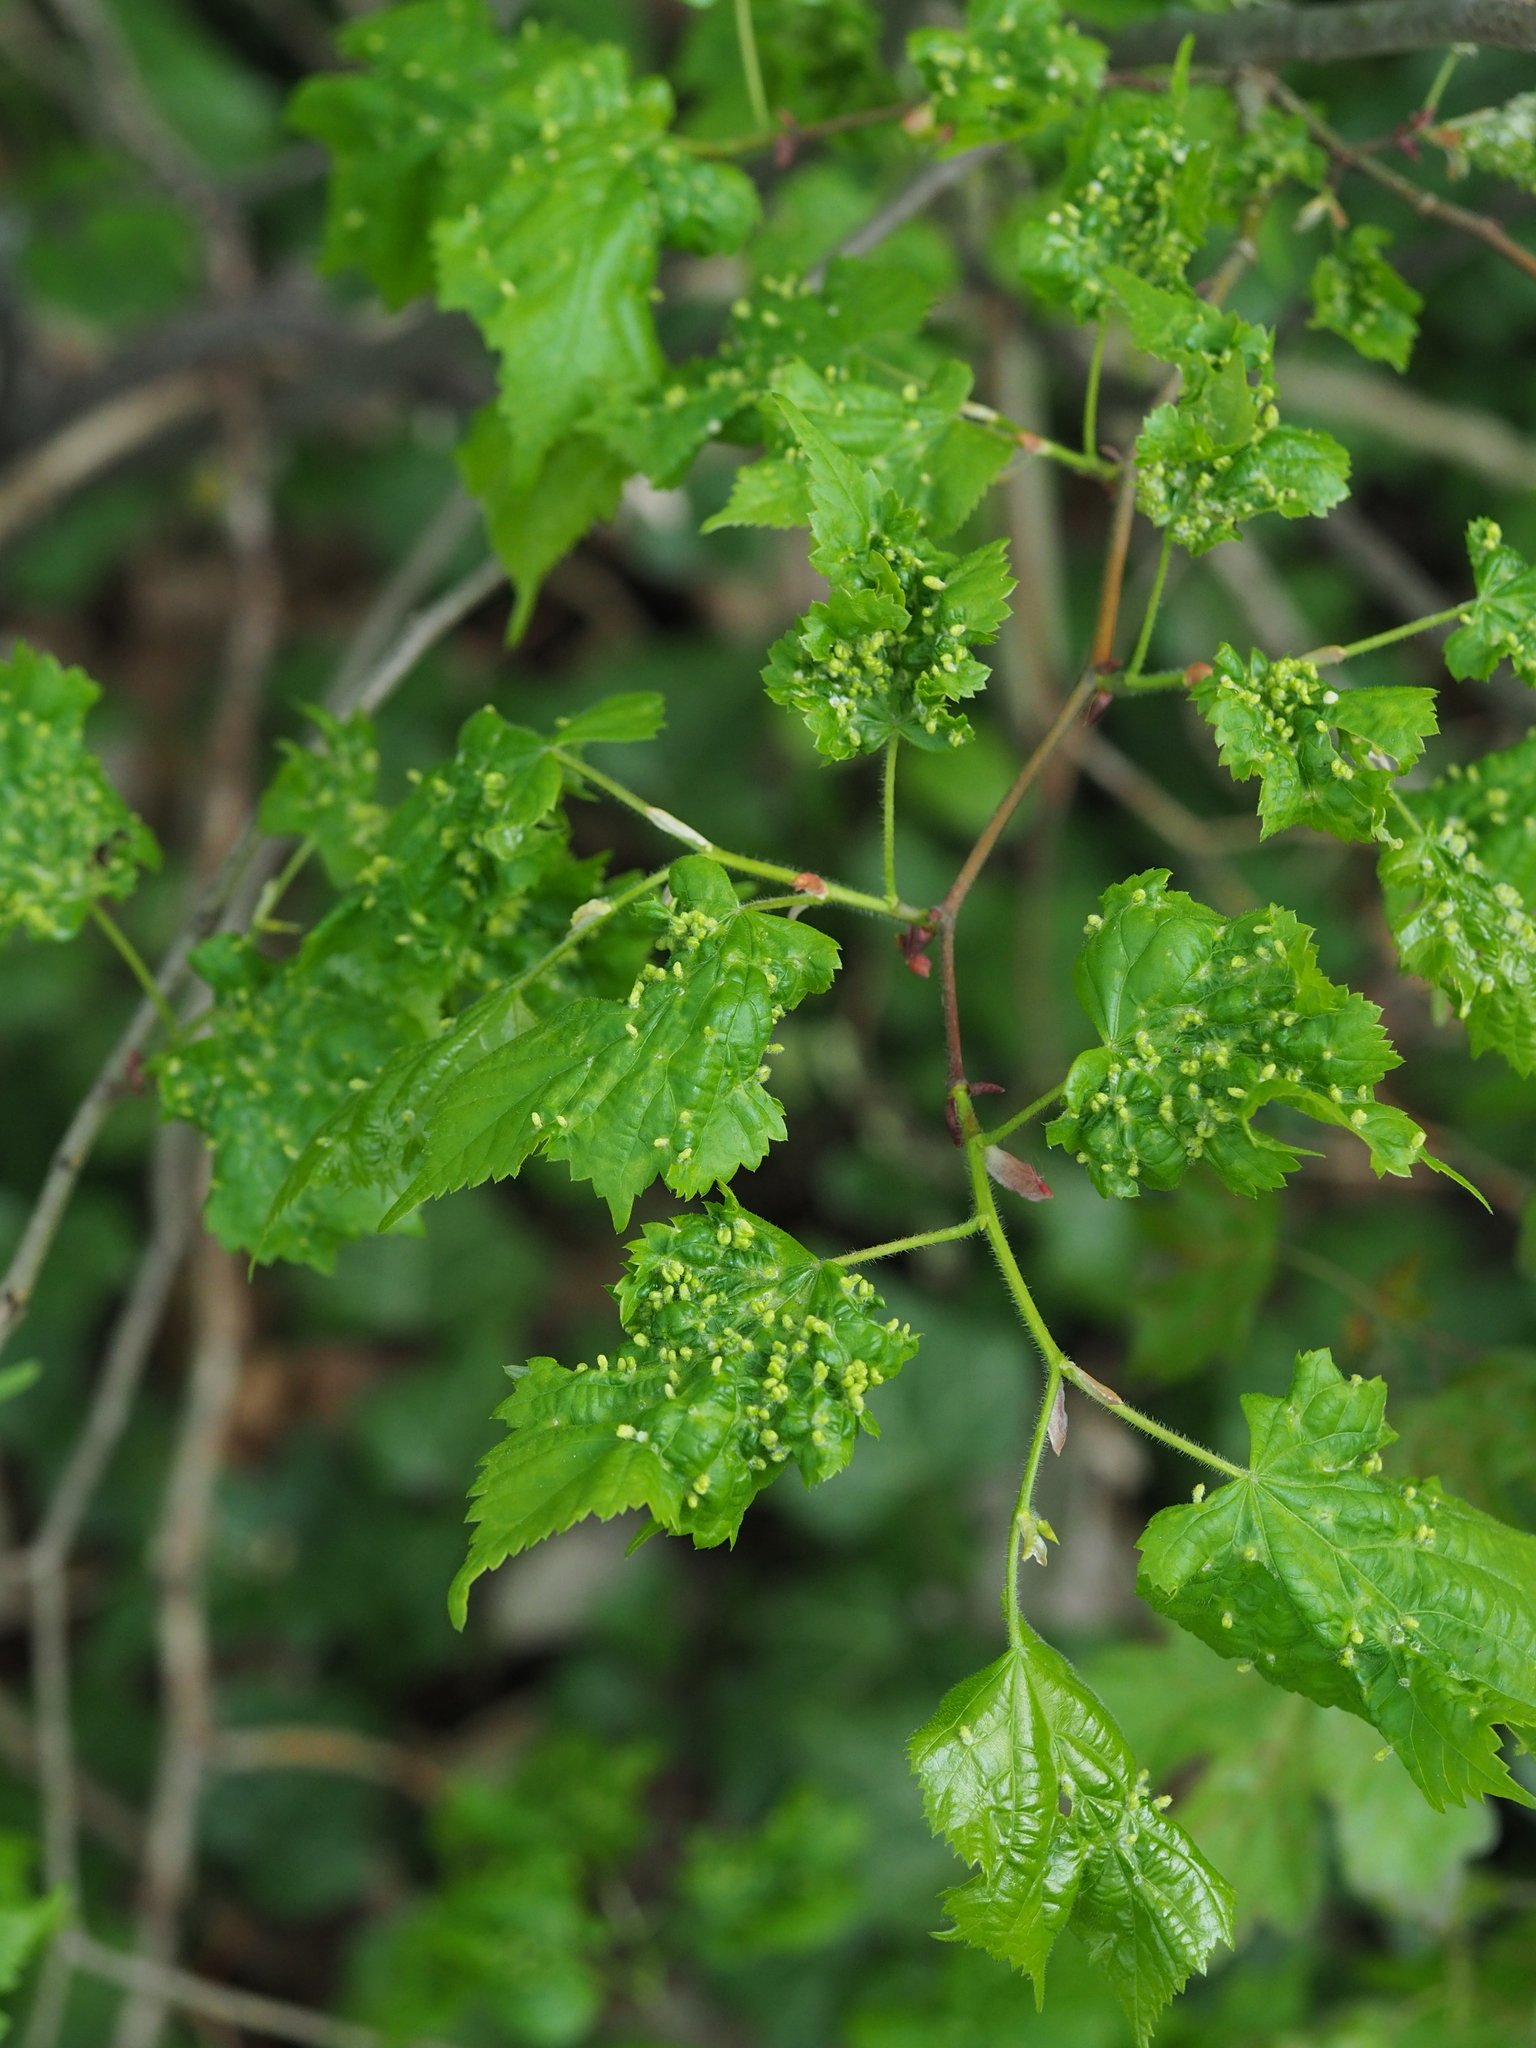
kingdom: Animalia
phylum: Arthropoda
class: Arachnida
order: Trombidiformes
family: Eriophyidae
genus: Aceria
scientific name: Aceria brevipunctata
